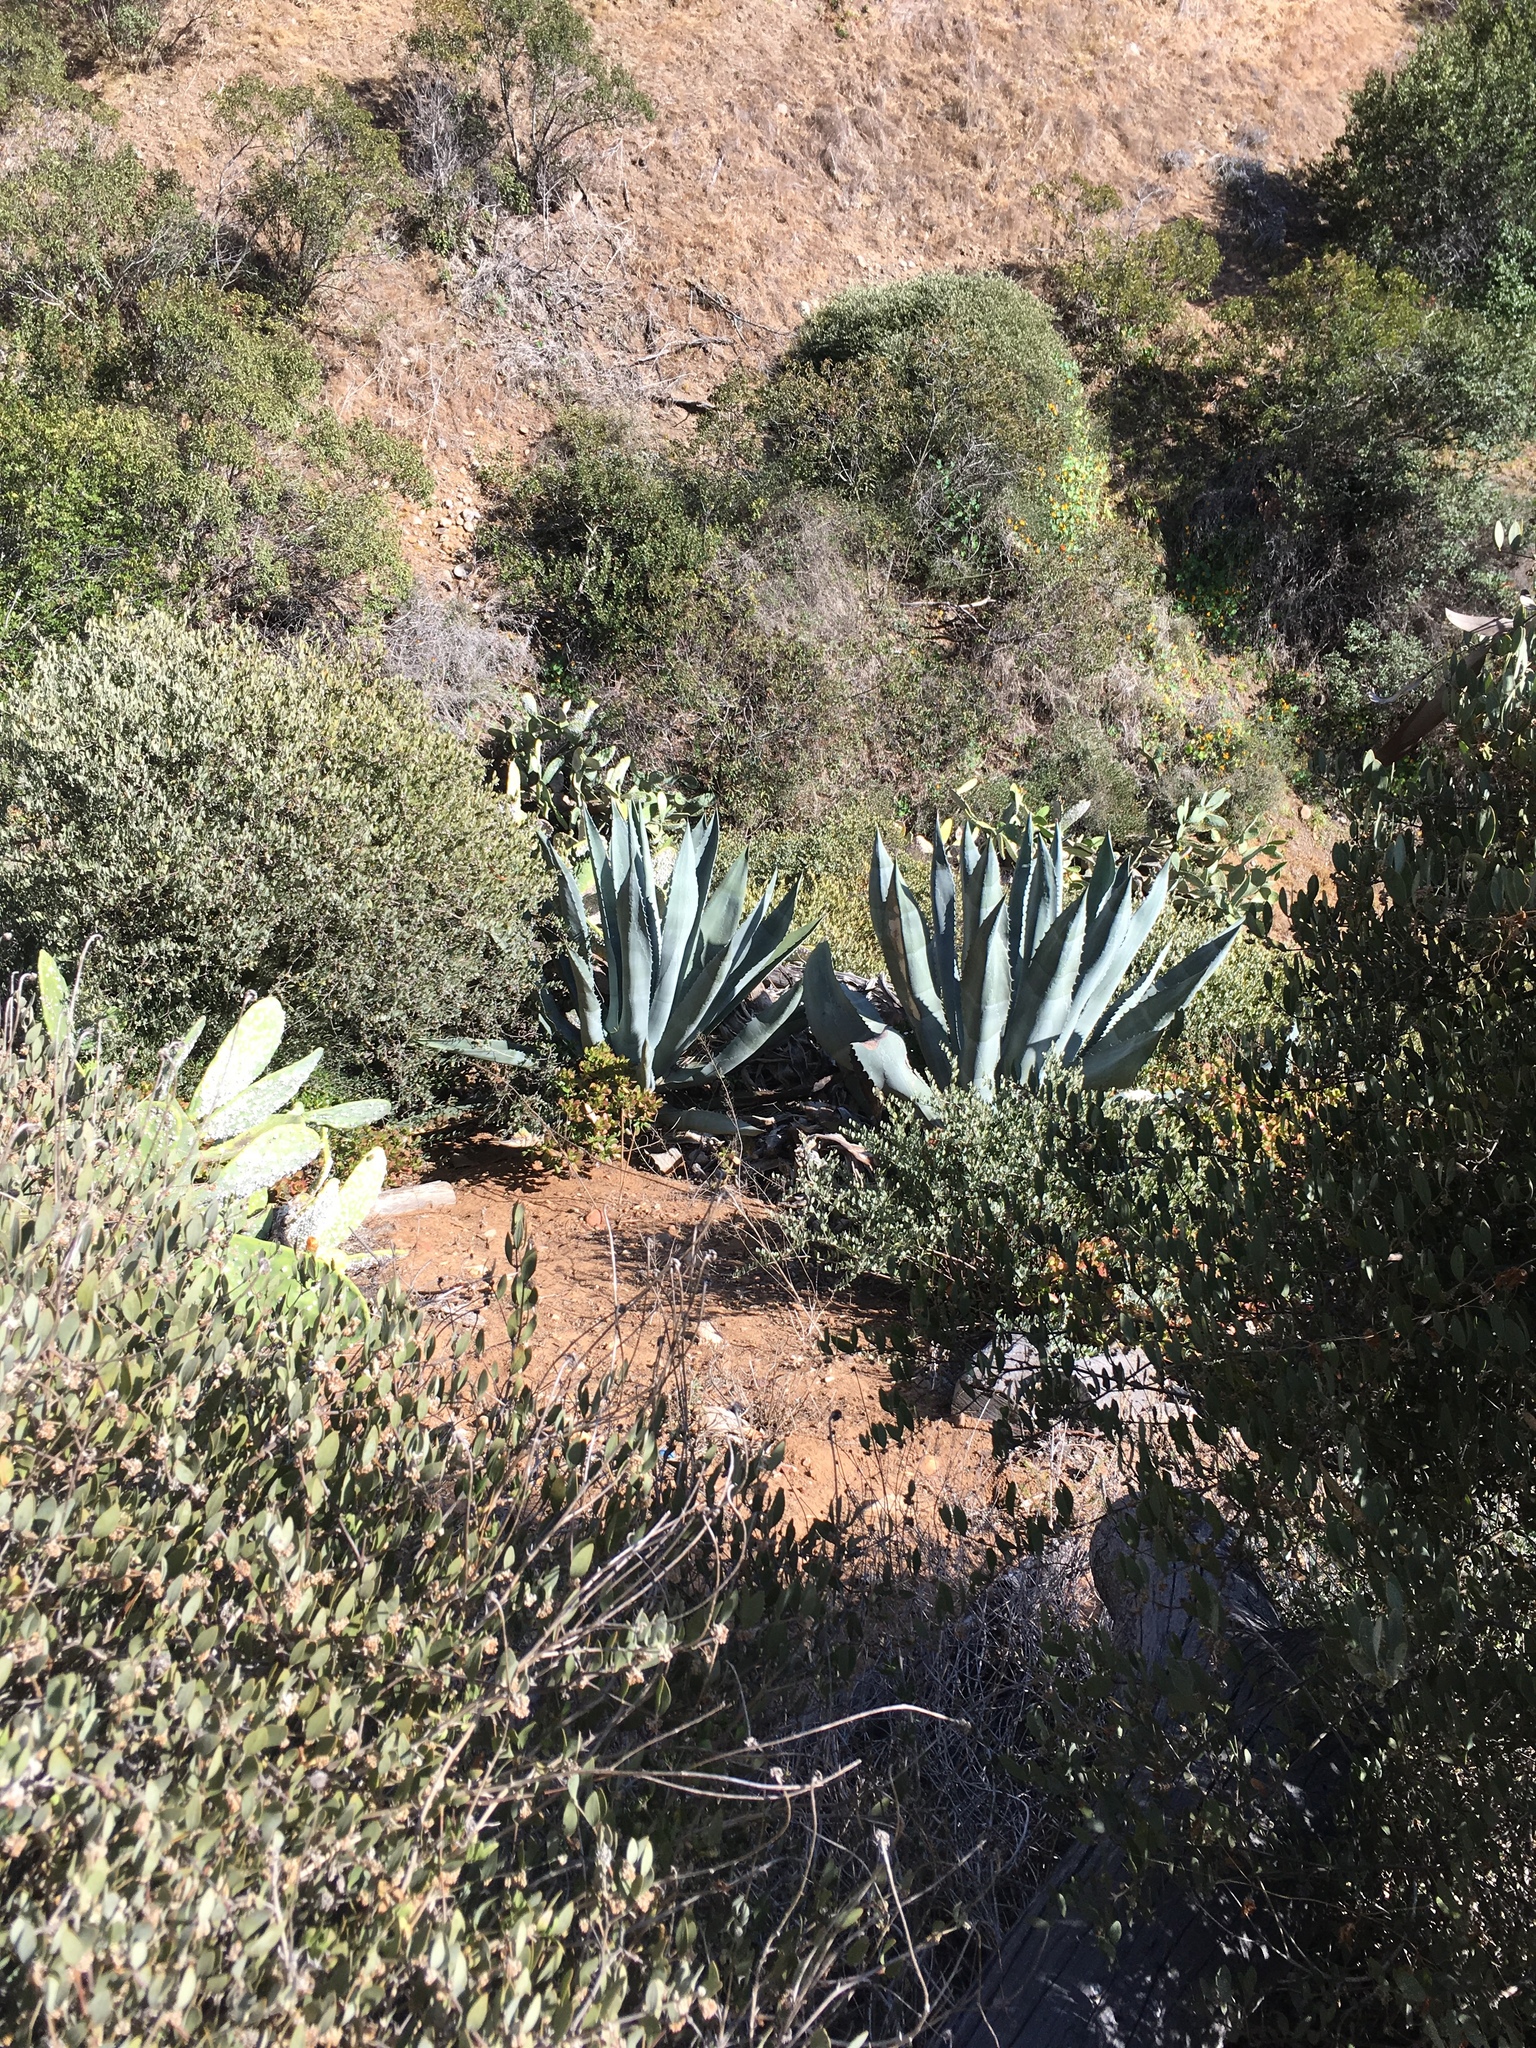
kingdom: Plantae
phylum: Tracheophyta
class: Liliopsida
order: Asparagales
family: Asparagaceae
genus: Agave
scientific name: Agave americana
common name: Centuryplant
